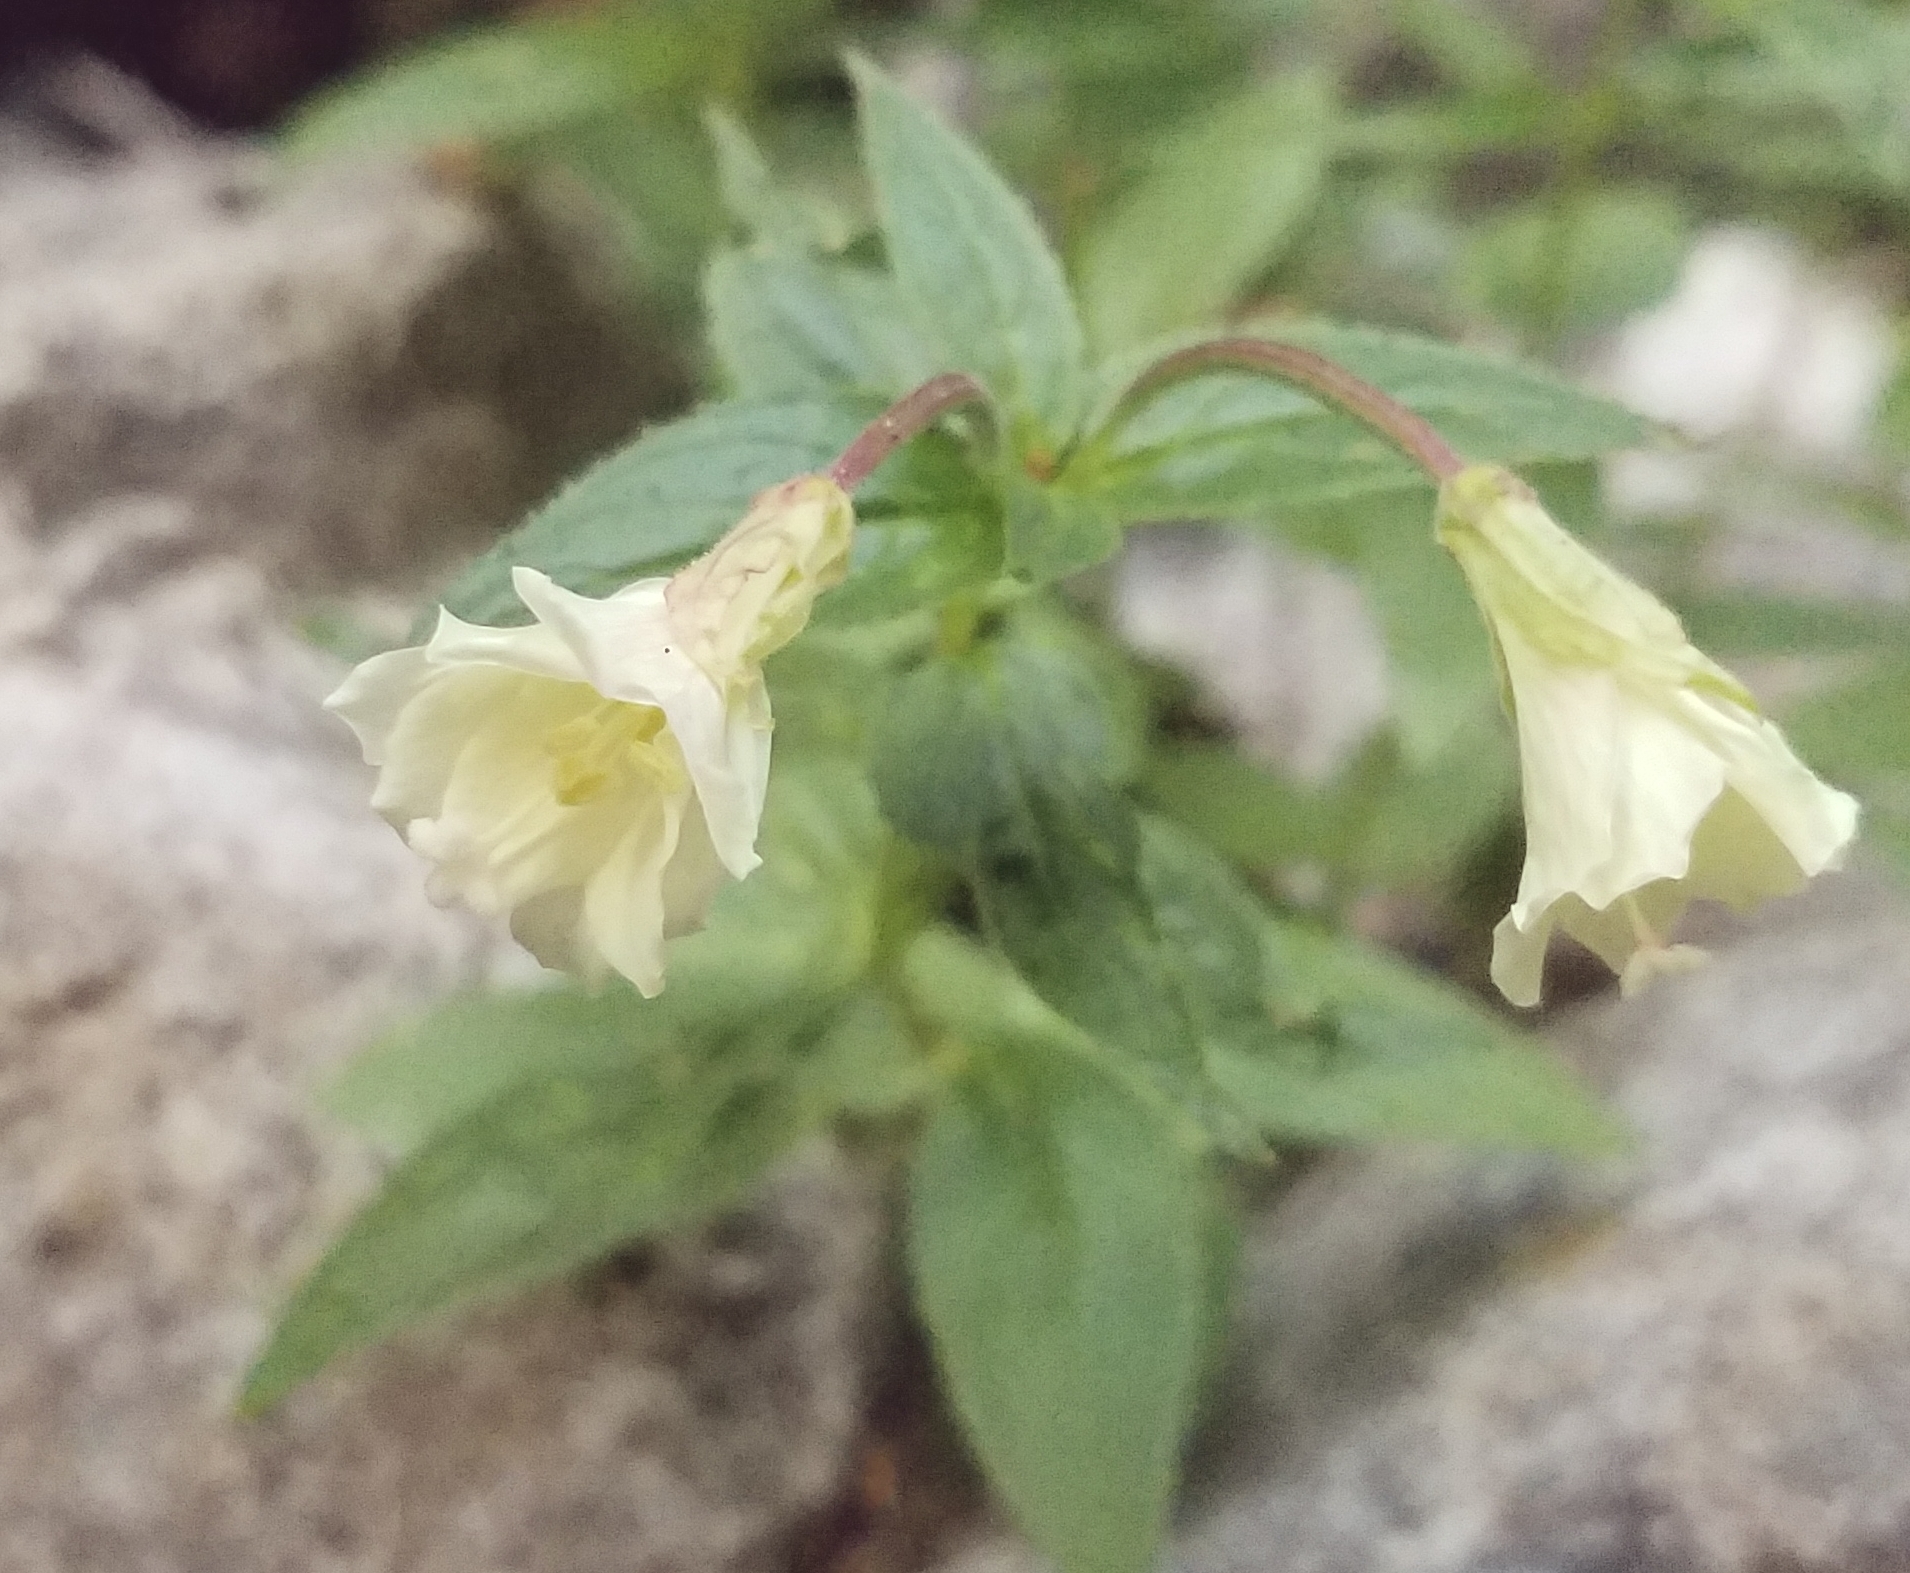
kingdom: Plantae
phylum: Tracheophyta
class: Magnoliopsida
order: Myrtales
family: Onagraceae
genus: Epilobium
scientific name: Epilobium luteum
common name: Yellow willowherb
